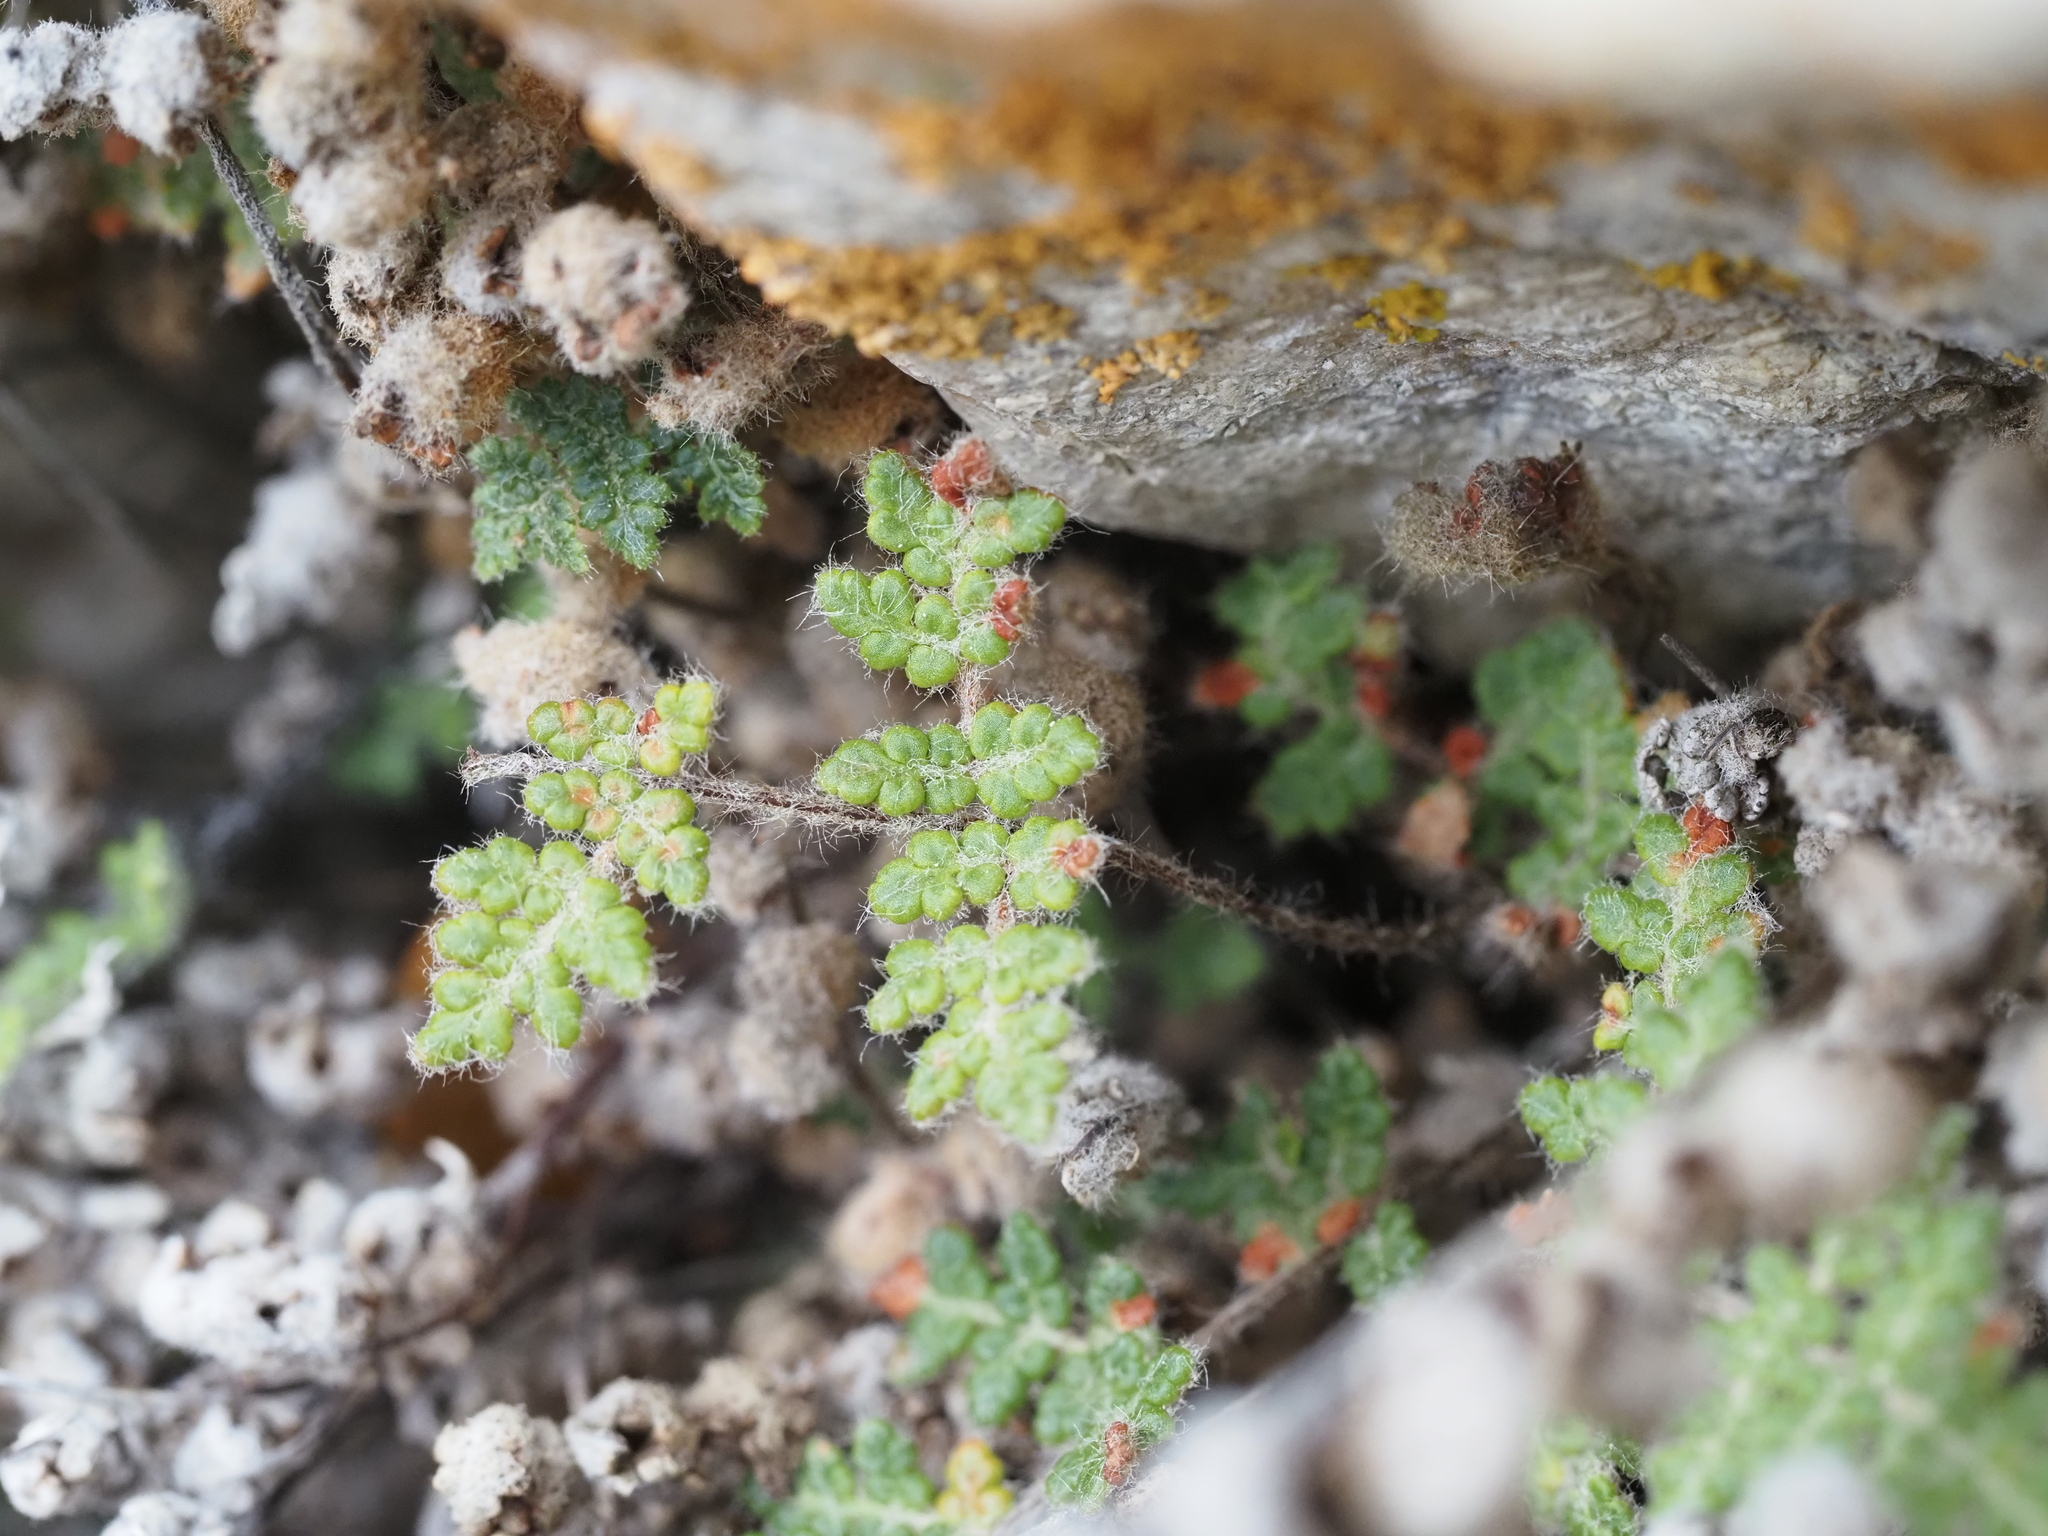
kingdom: Plantae
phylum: Tracheophyta
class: Polypodiopsida
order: Polypodiales
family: Pteridaceae
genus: Myriopteris
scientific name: Myriopteris gracilis
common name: Fee's lip fern
